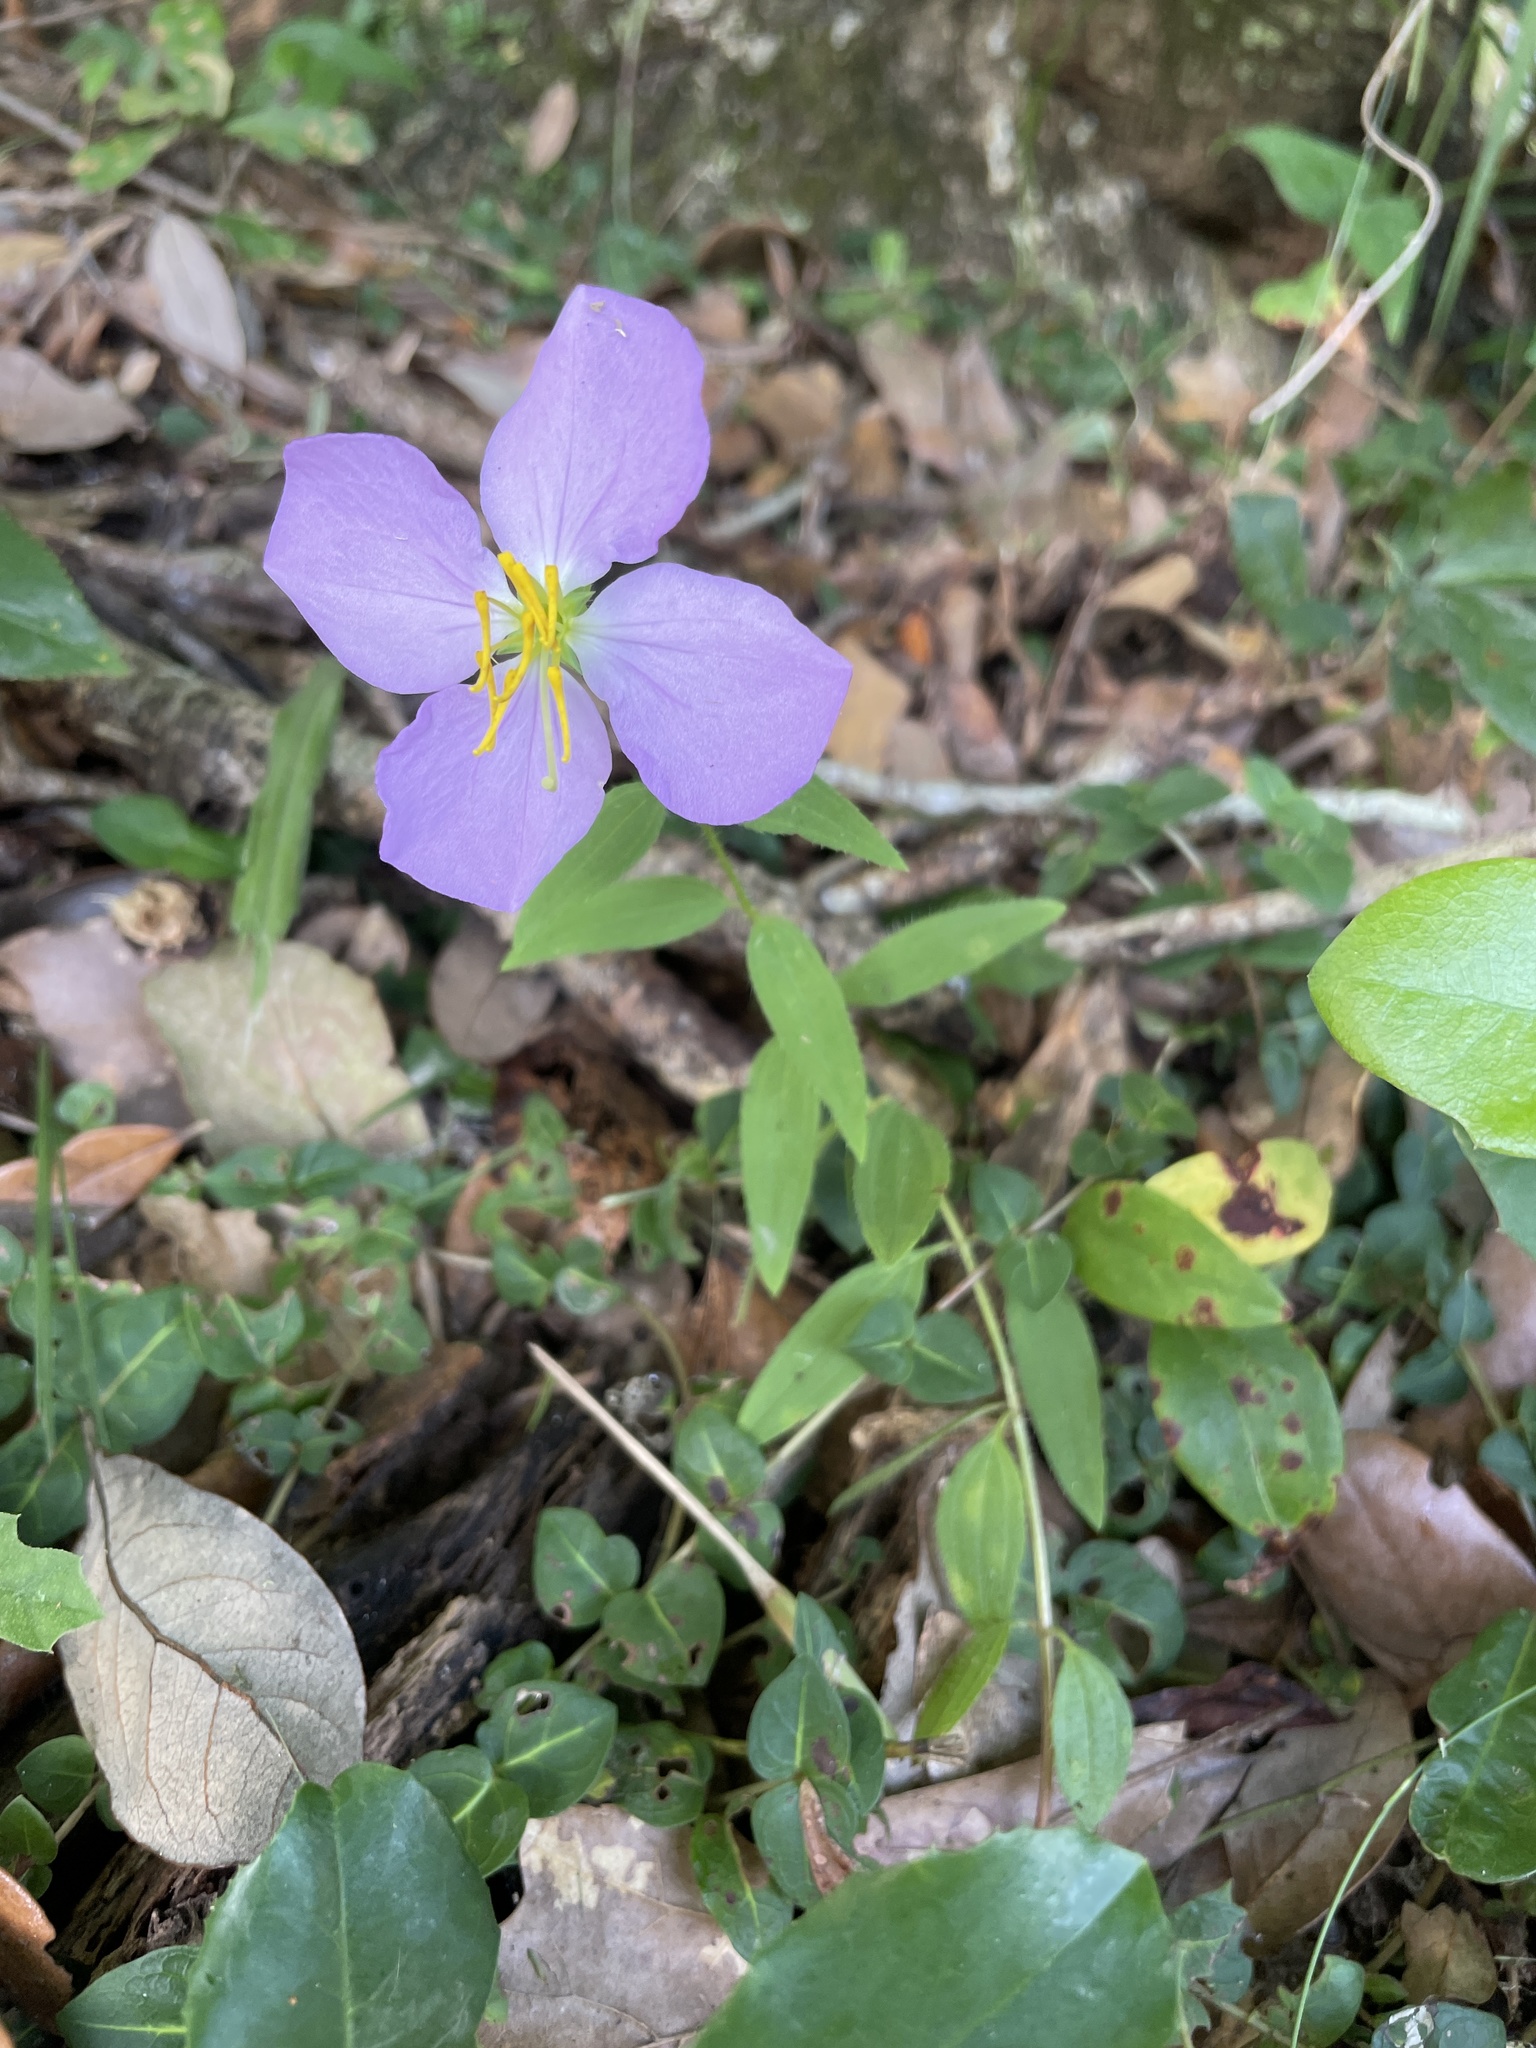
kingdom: Plantae
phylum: Tracheophyta
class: Magnoliopsida
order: Myrtales
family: Melastomataceae
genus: Rhexia
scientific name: Rhexia nashii
